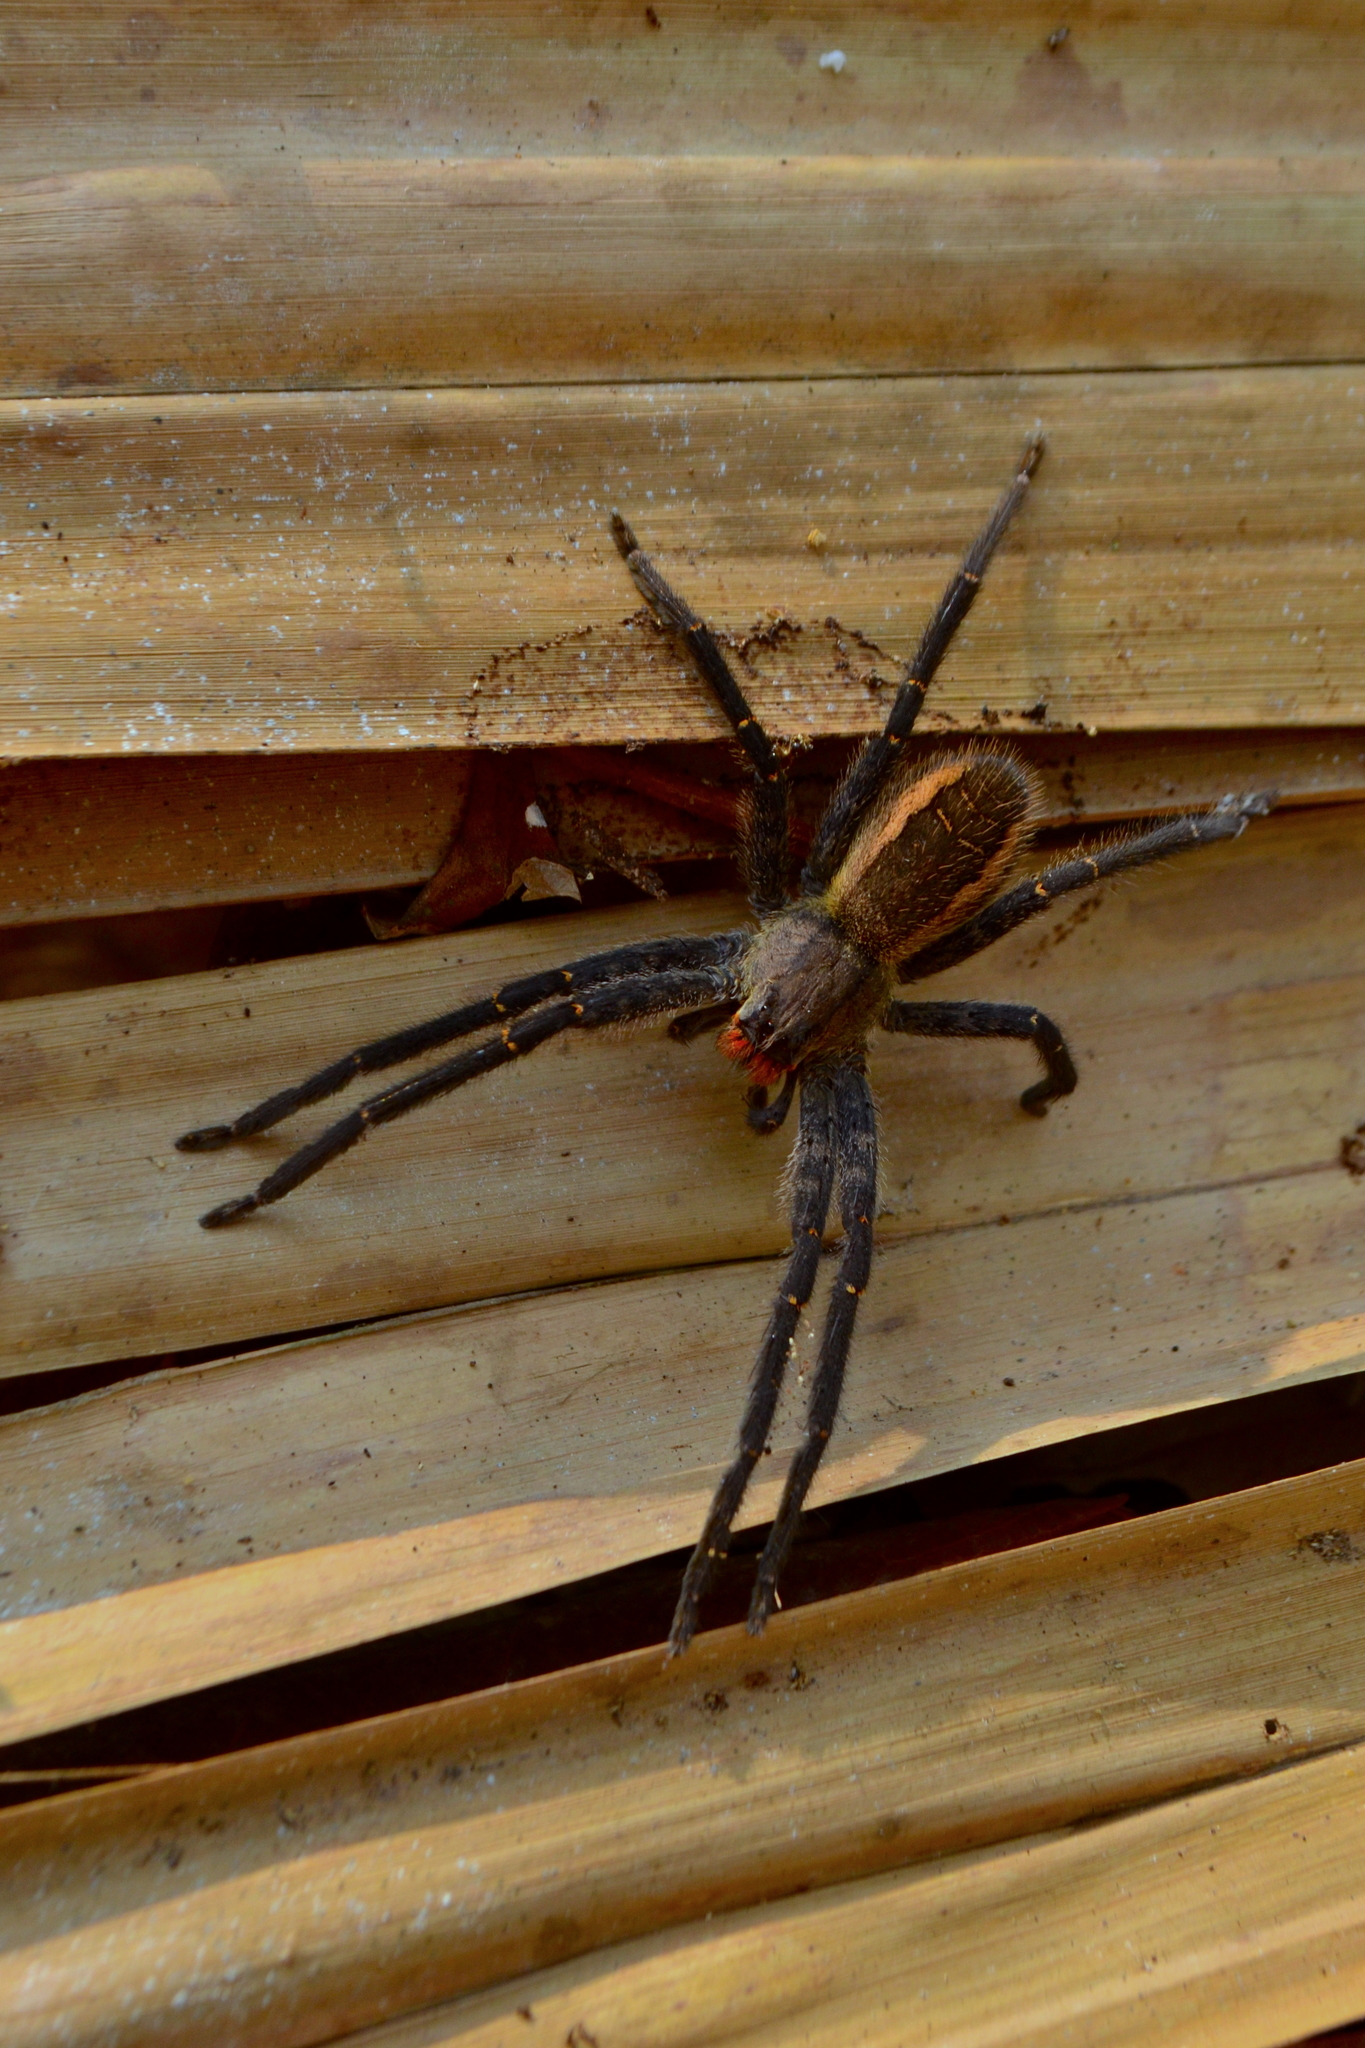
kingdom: Animalia
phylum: Arthropoda
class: Arachnida
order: Araneae
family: Trechaleidae
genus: Cupiennius
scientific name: Cupiennius chiapanensis
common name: Wandering spiders
